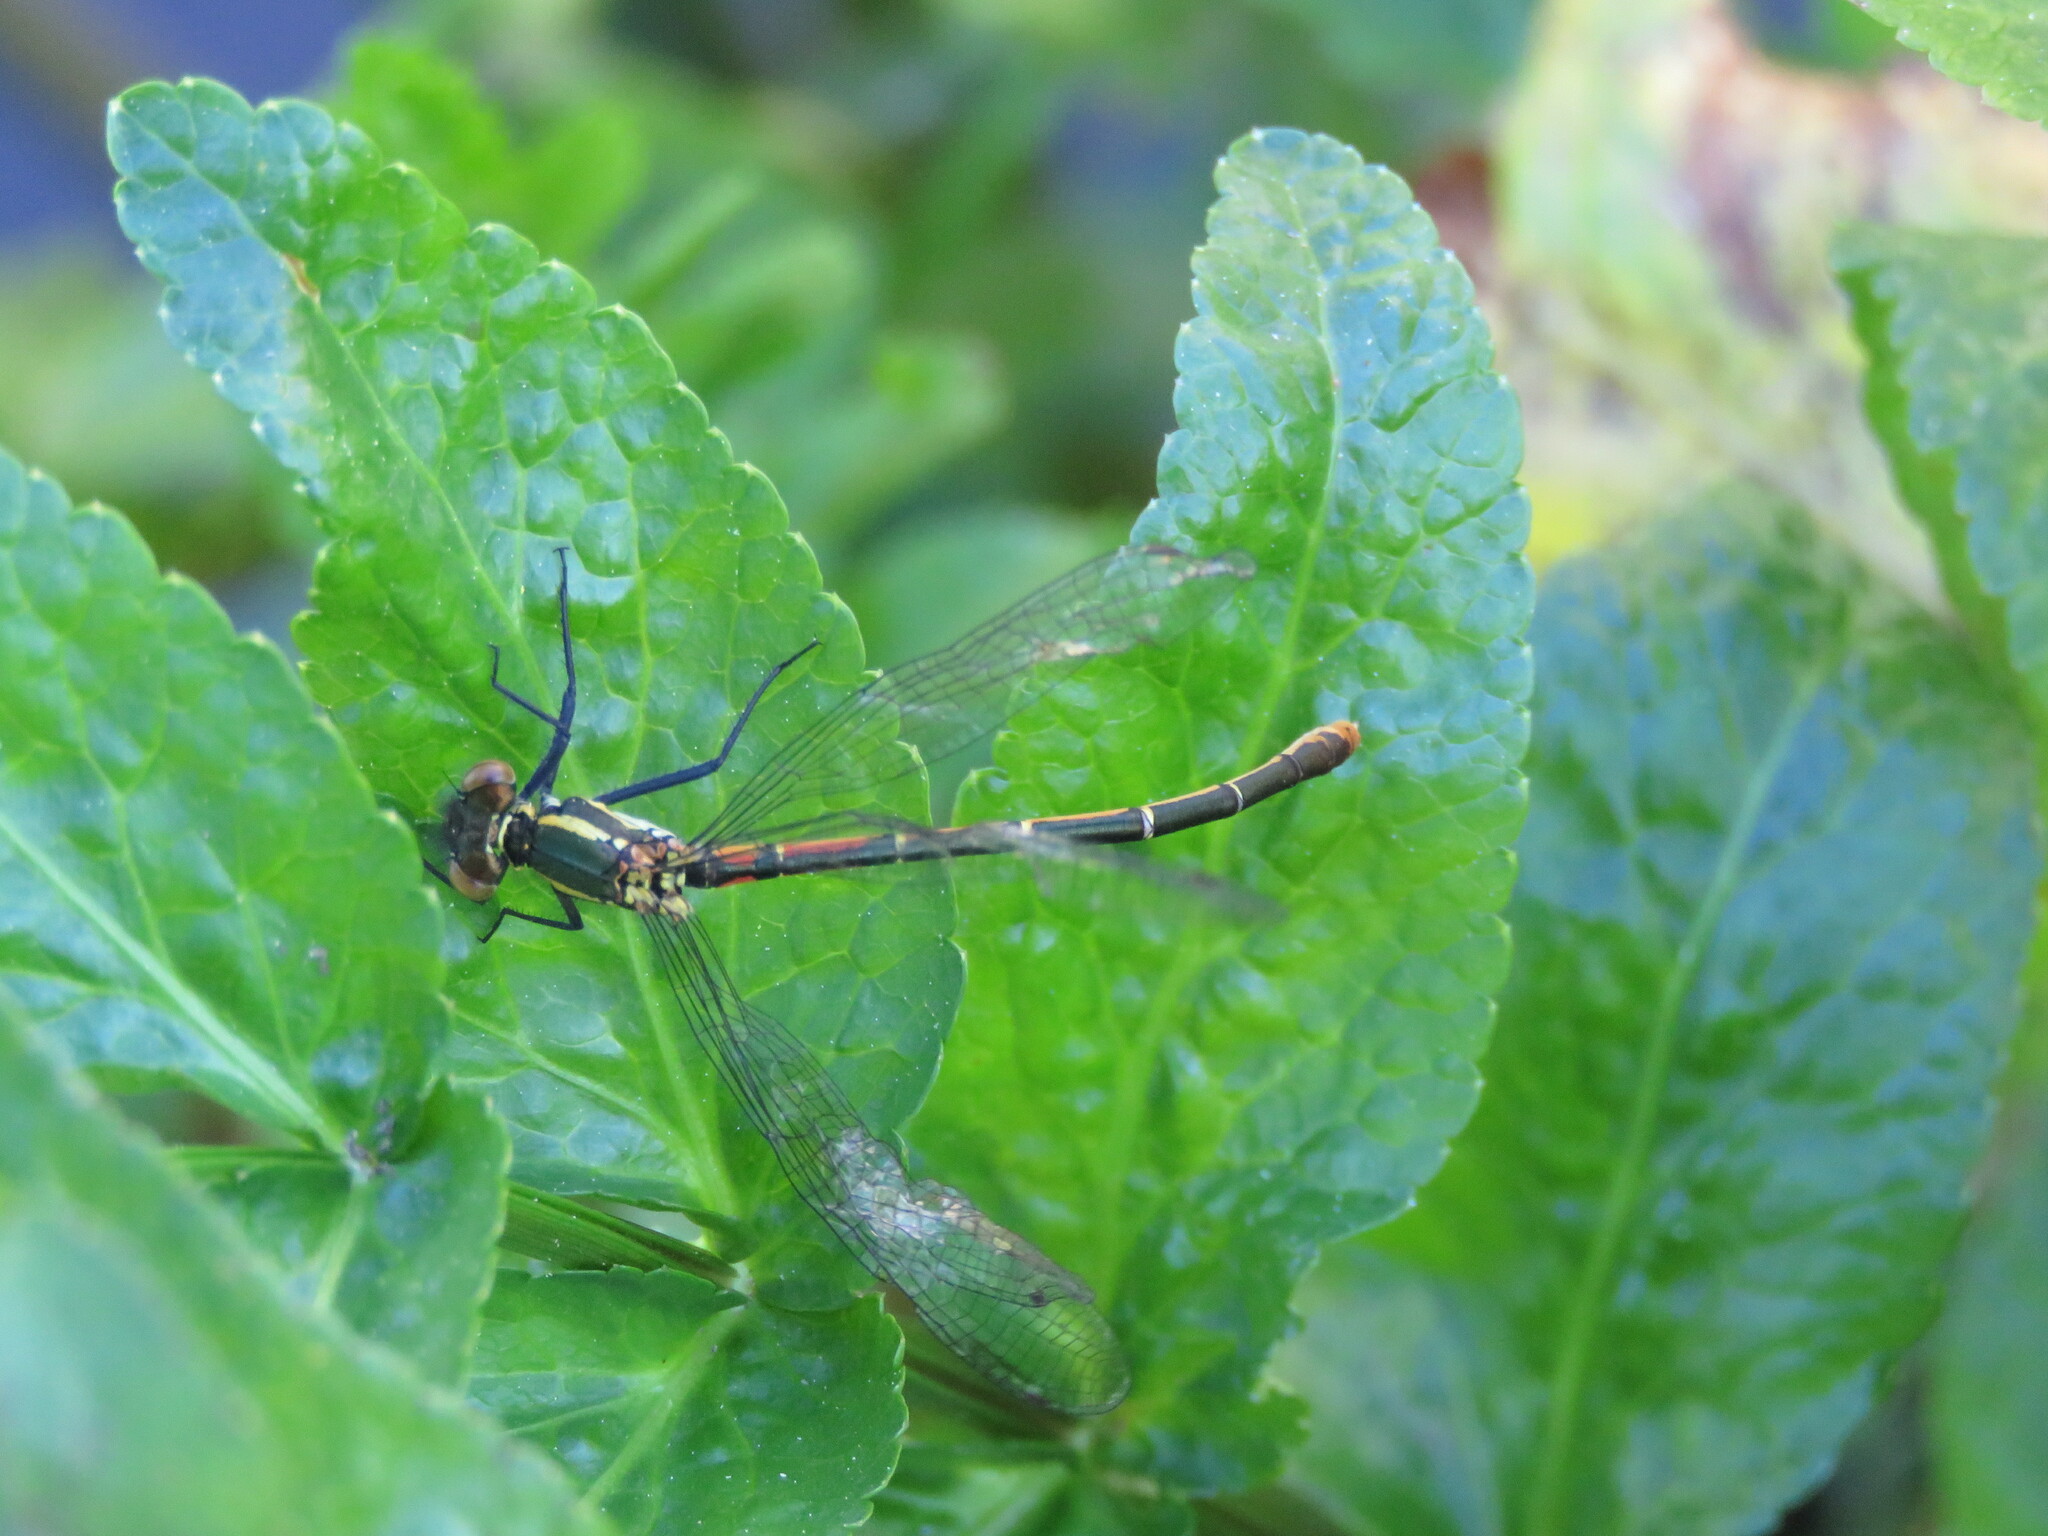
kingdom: Animalia
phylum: Arthropoda
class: Insecta
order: Odonata
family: Coenagrionidae
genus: Pyrrhosoma
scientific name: Pyrrhosoma nymphula
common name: Large red damsel
